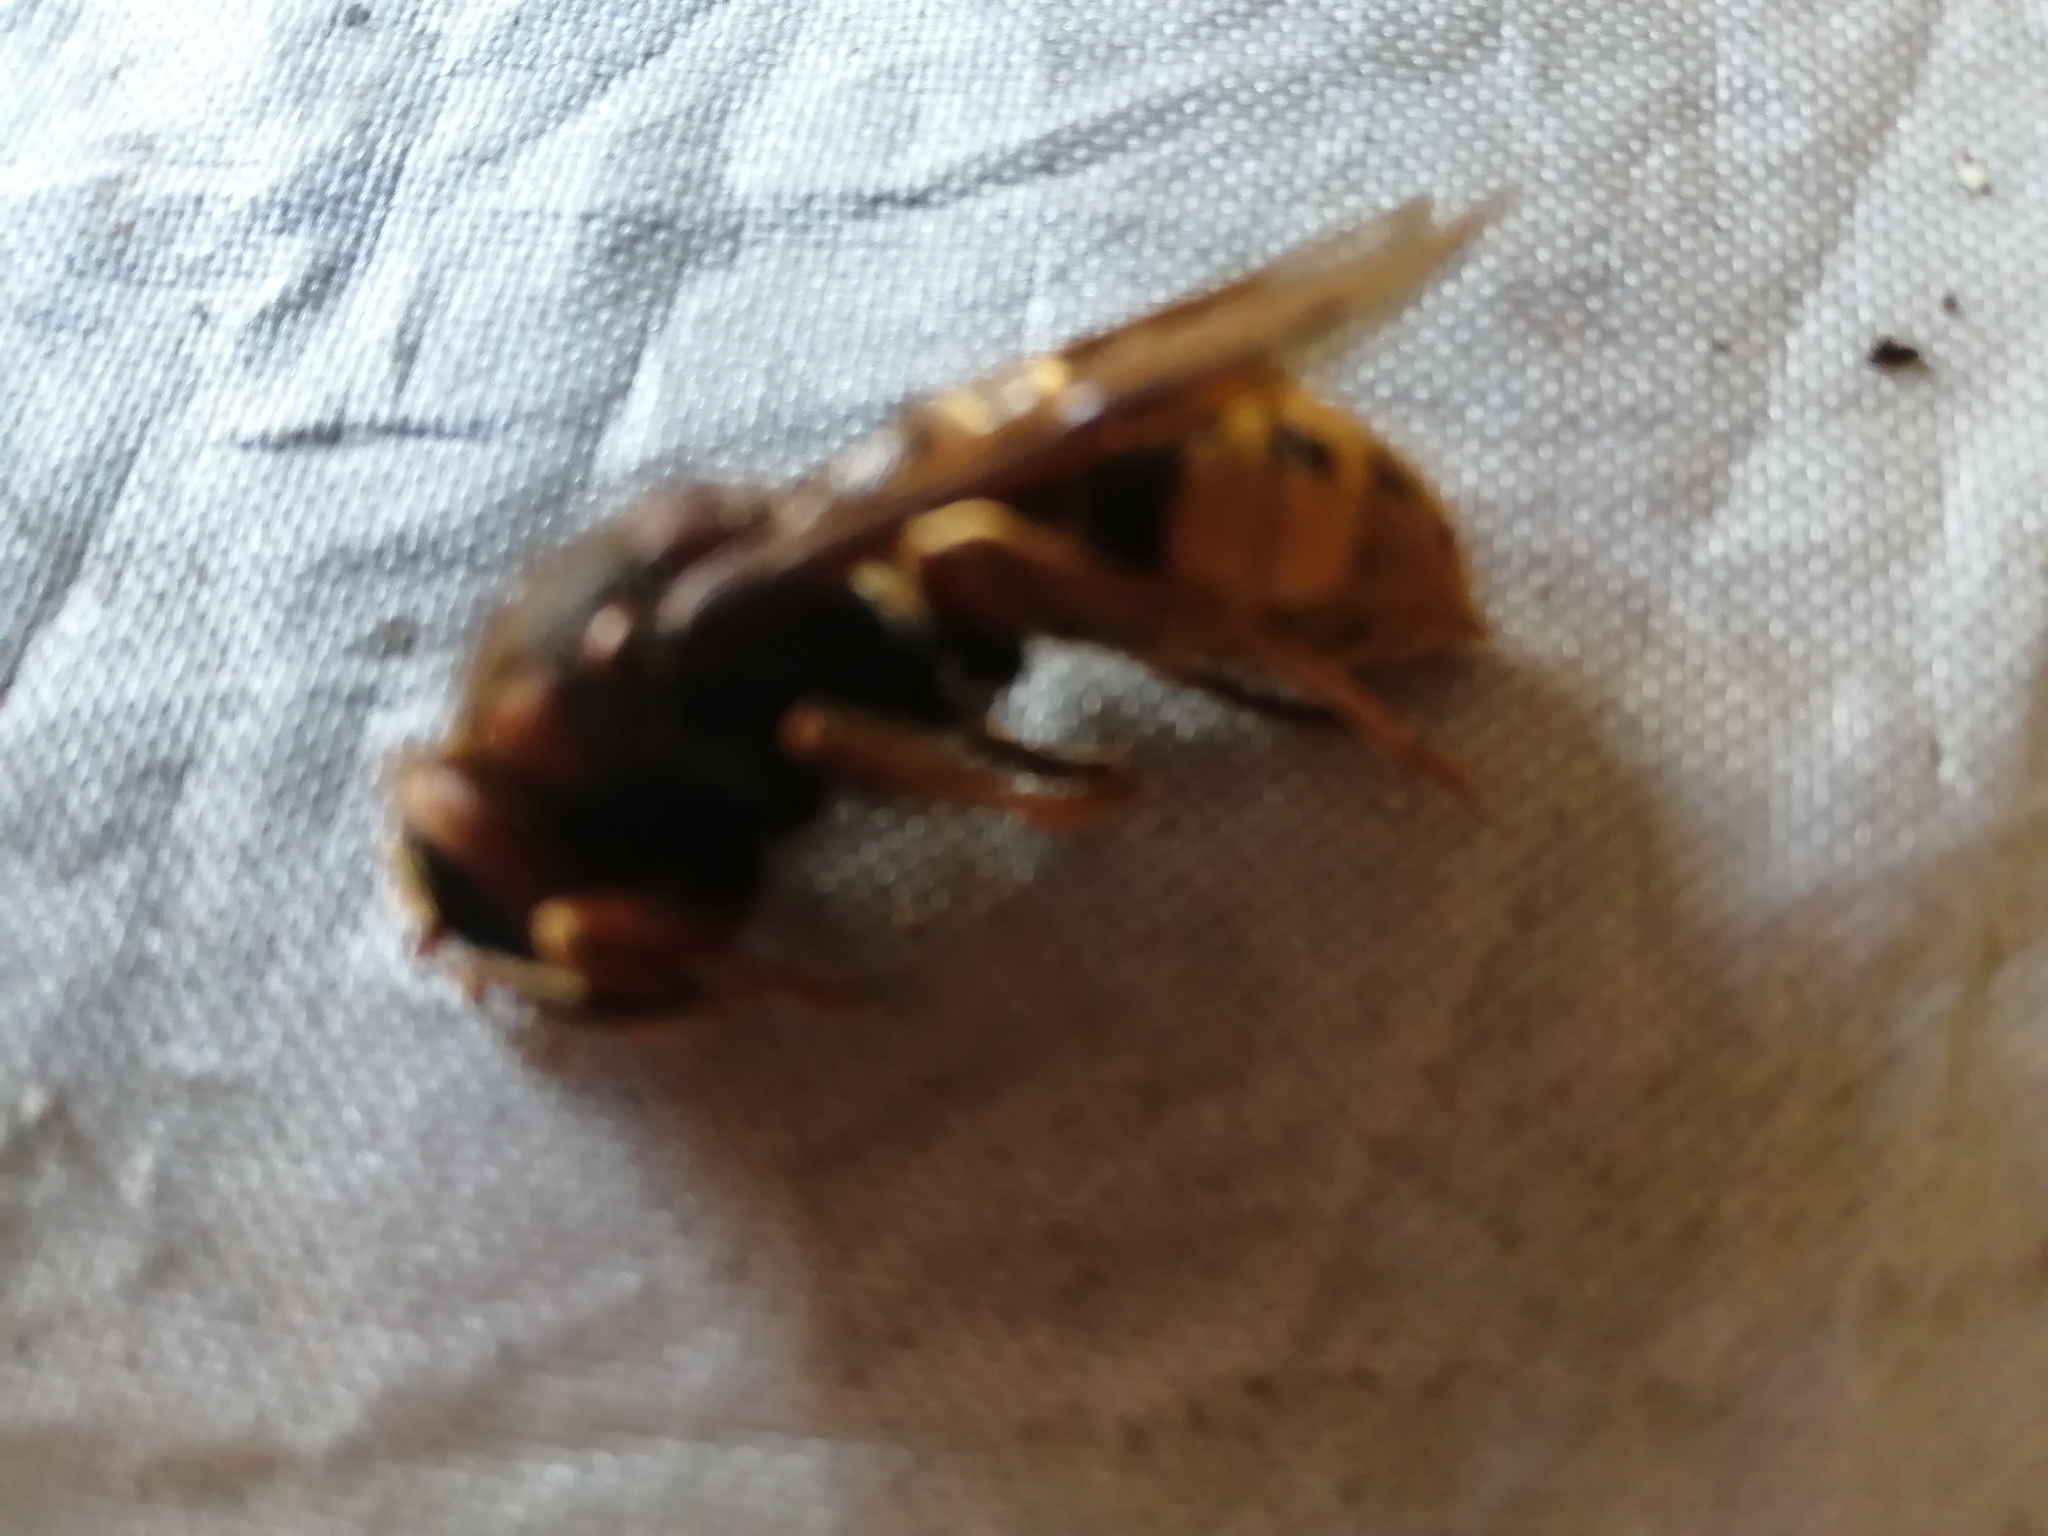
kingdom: Animalia
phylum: Arthropoda
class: Insecta
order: Hymenoptera
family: Vespidae
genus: Vespa
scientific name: Vespa crabro
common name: Hornet
